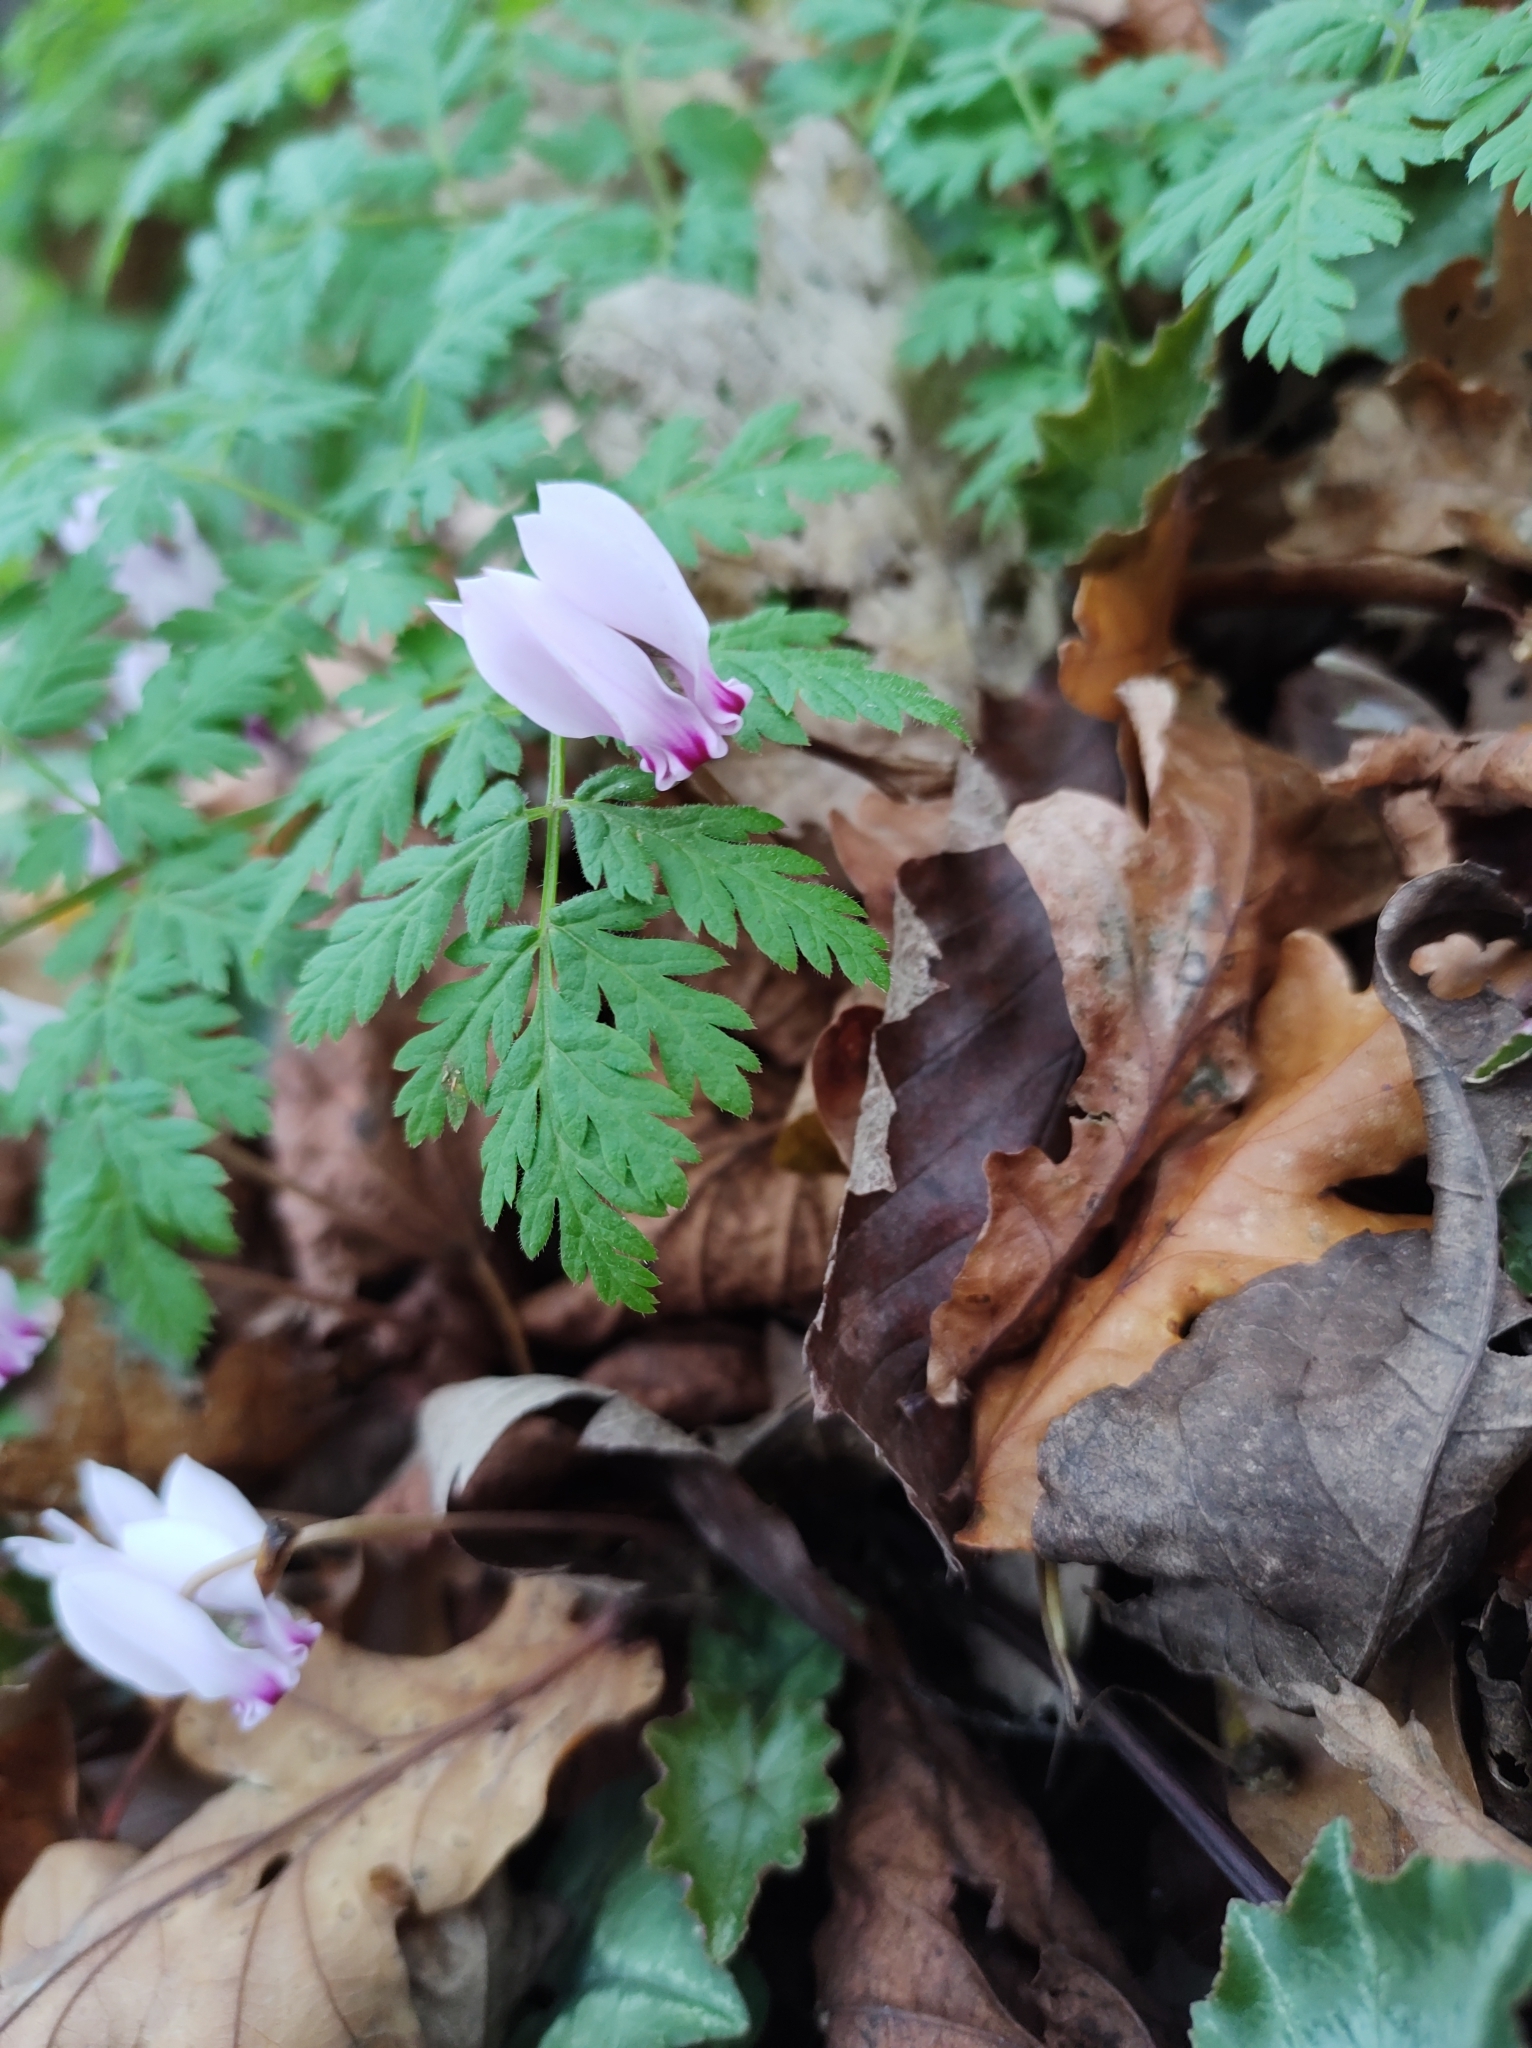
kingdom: Plantae
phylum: Tracheophyta
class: Magnoliopsida
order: Ericales
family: Primulaceae
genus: Cyclamen
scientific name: Cyclamen hederifolium
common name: Sowbread
